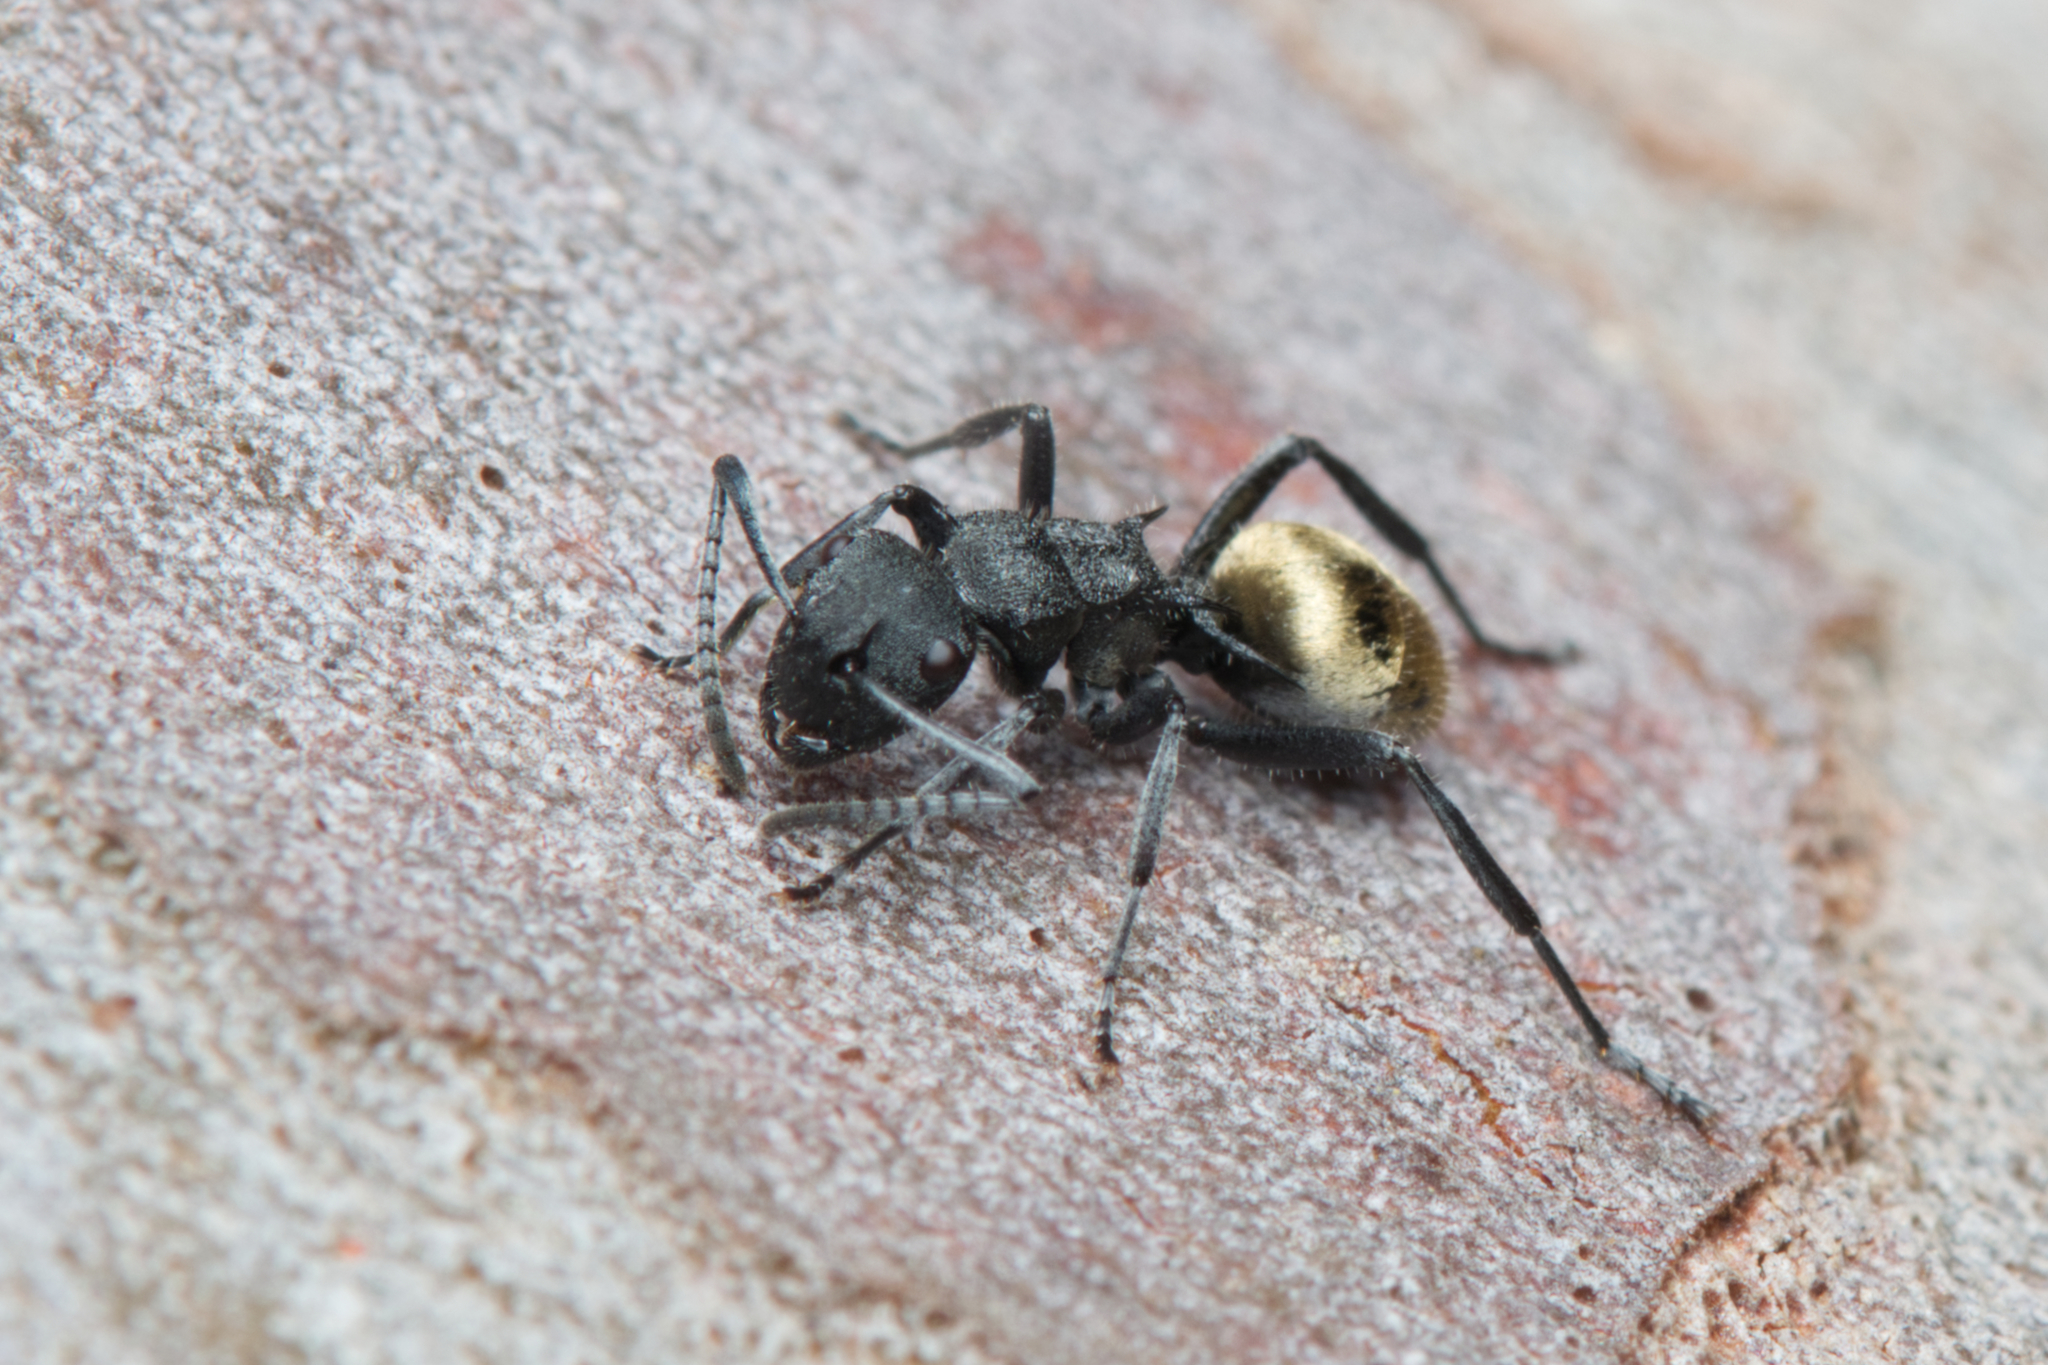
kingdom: Animalia
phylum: Arthropoda
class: Insecta
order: Hymenoptera
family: Formicidae
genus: Polyrhachis
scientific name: Polyrhachis erato
